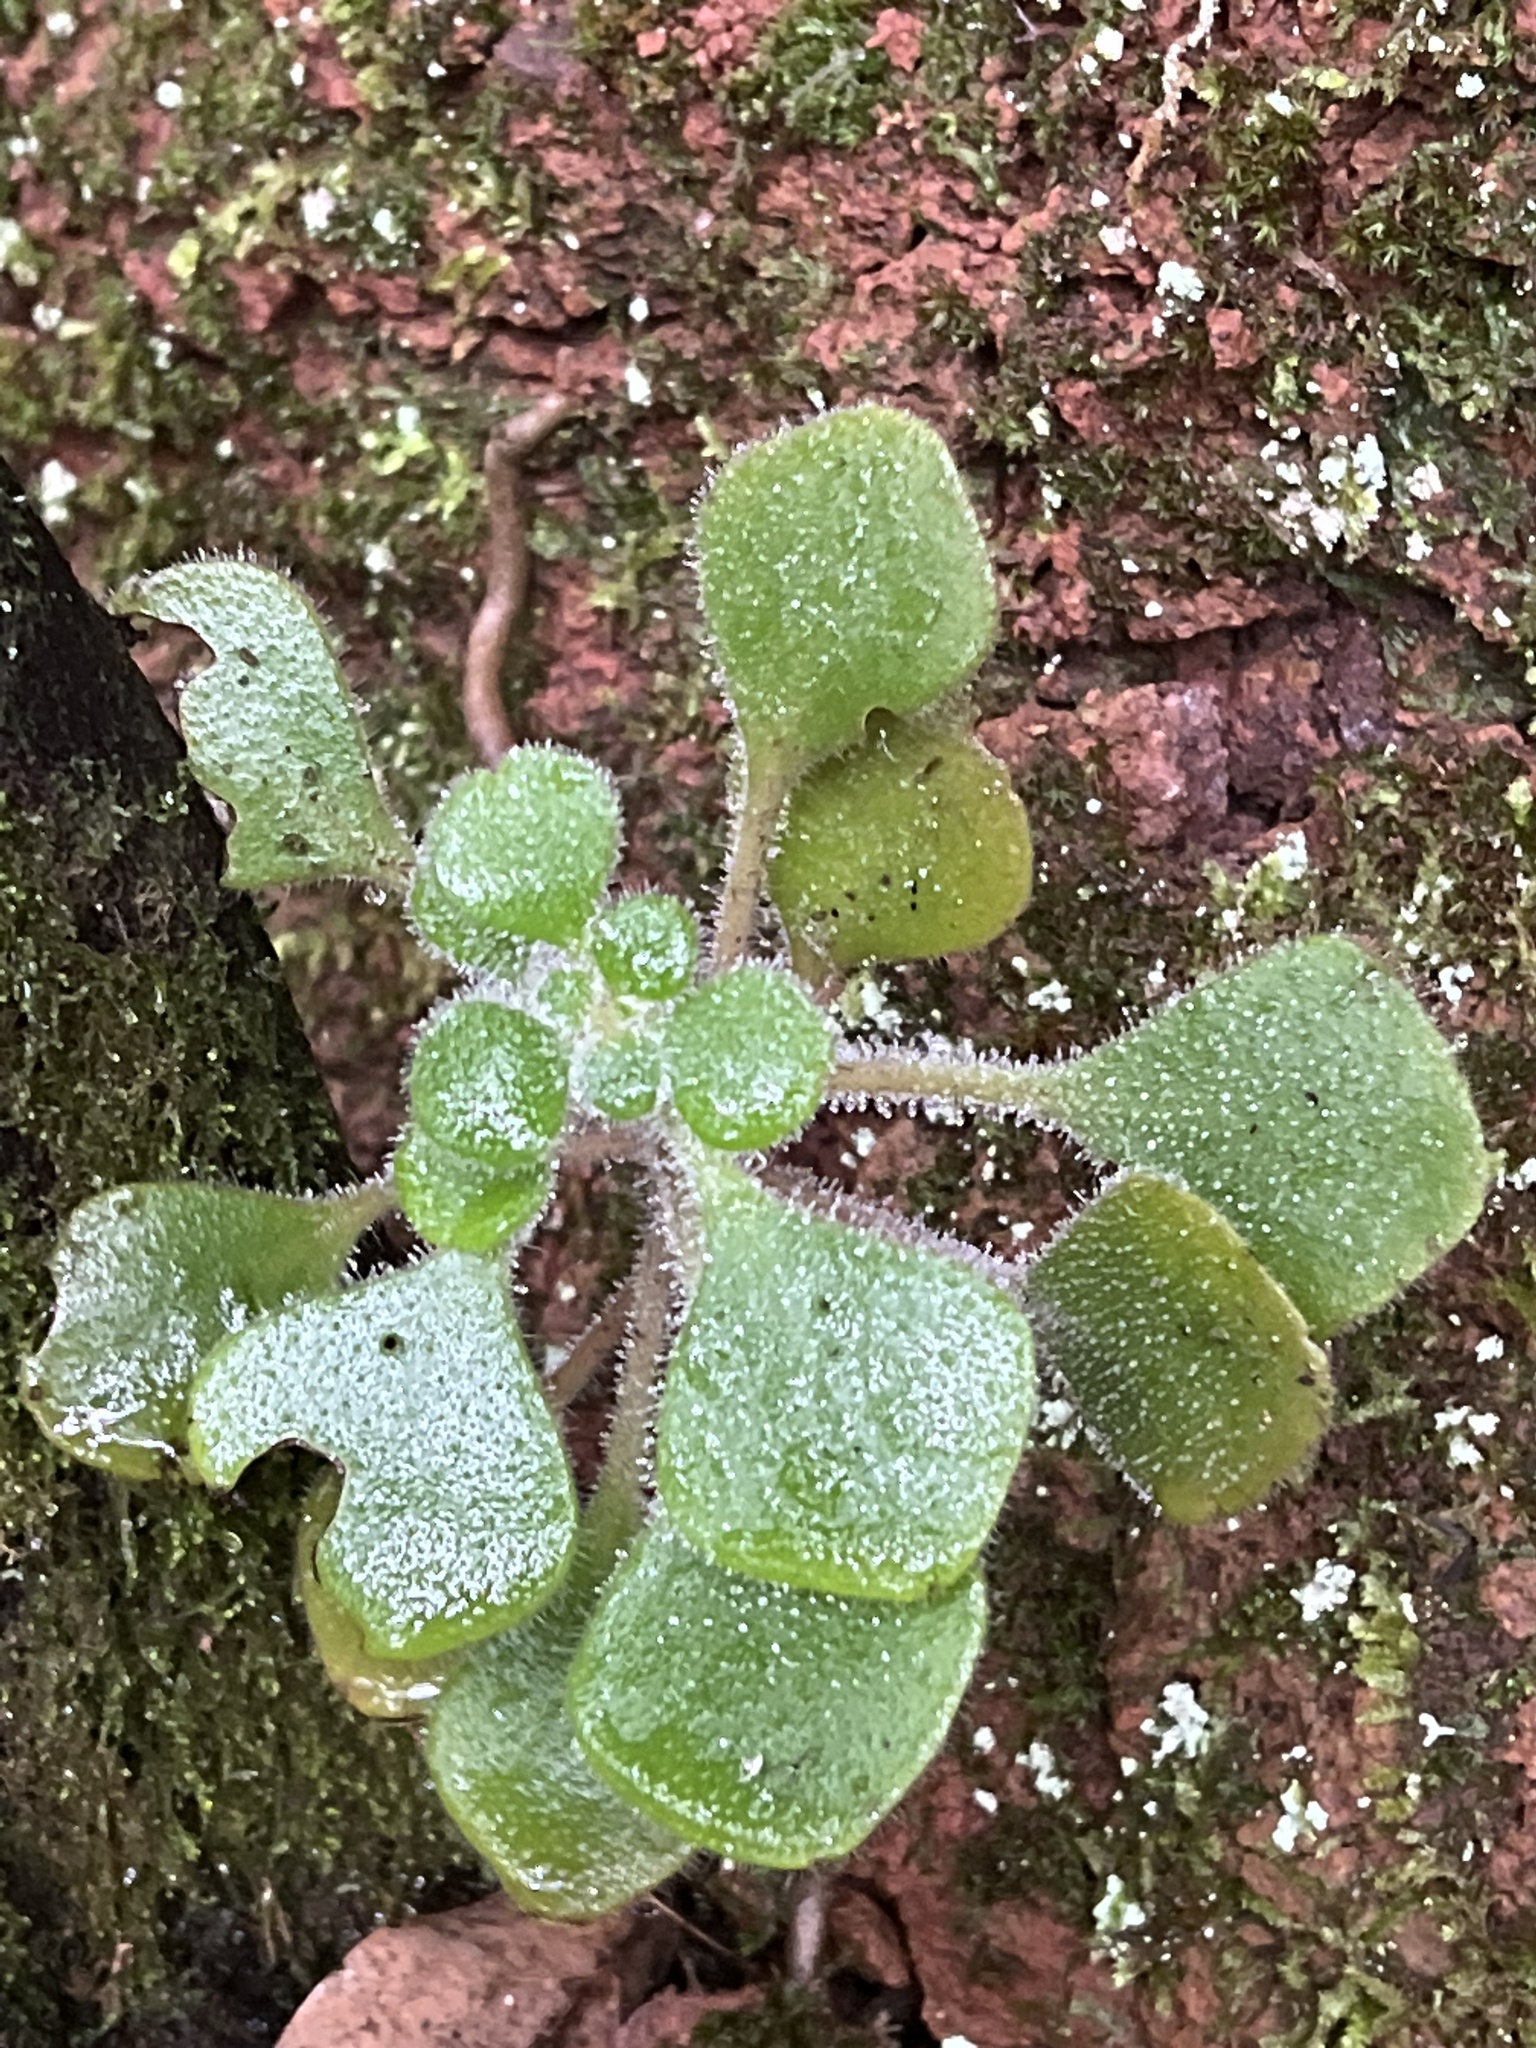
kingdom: Plantae
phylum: Tracheophyta
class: Magnoliopsida
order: Saxifragales
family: Crassulaceae
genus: Aichryson
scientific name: Aichryson laxum
